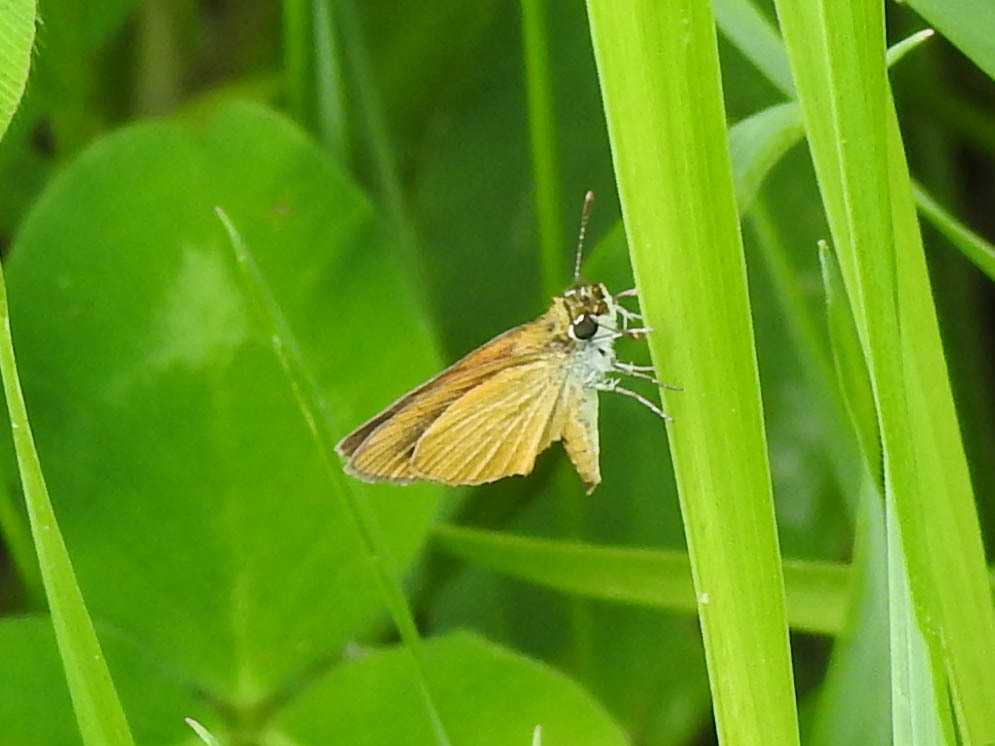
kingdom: Animalia
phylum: Arthropoda
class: Insecta
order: Lepidoptera
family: Hesperiidae
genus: Ancyloxypha
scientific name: Ancyloxypha numitor
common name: Least skipper
